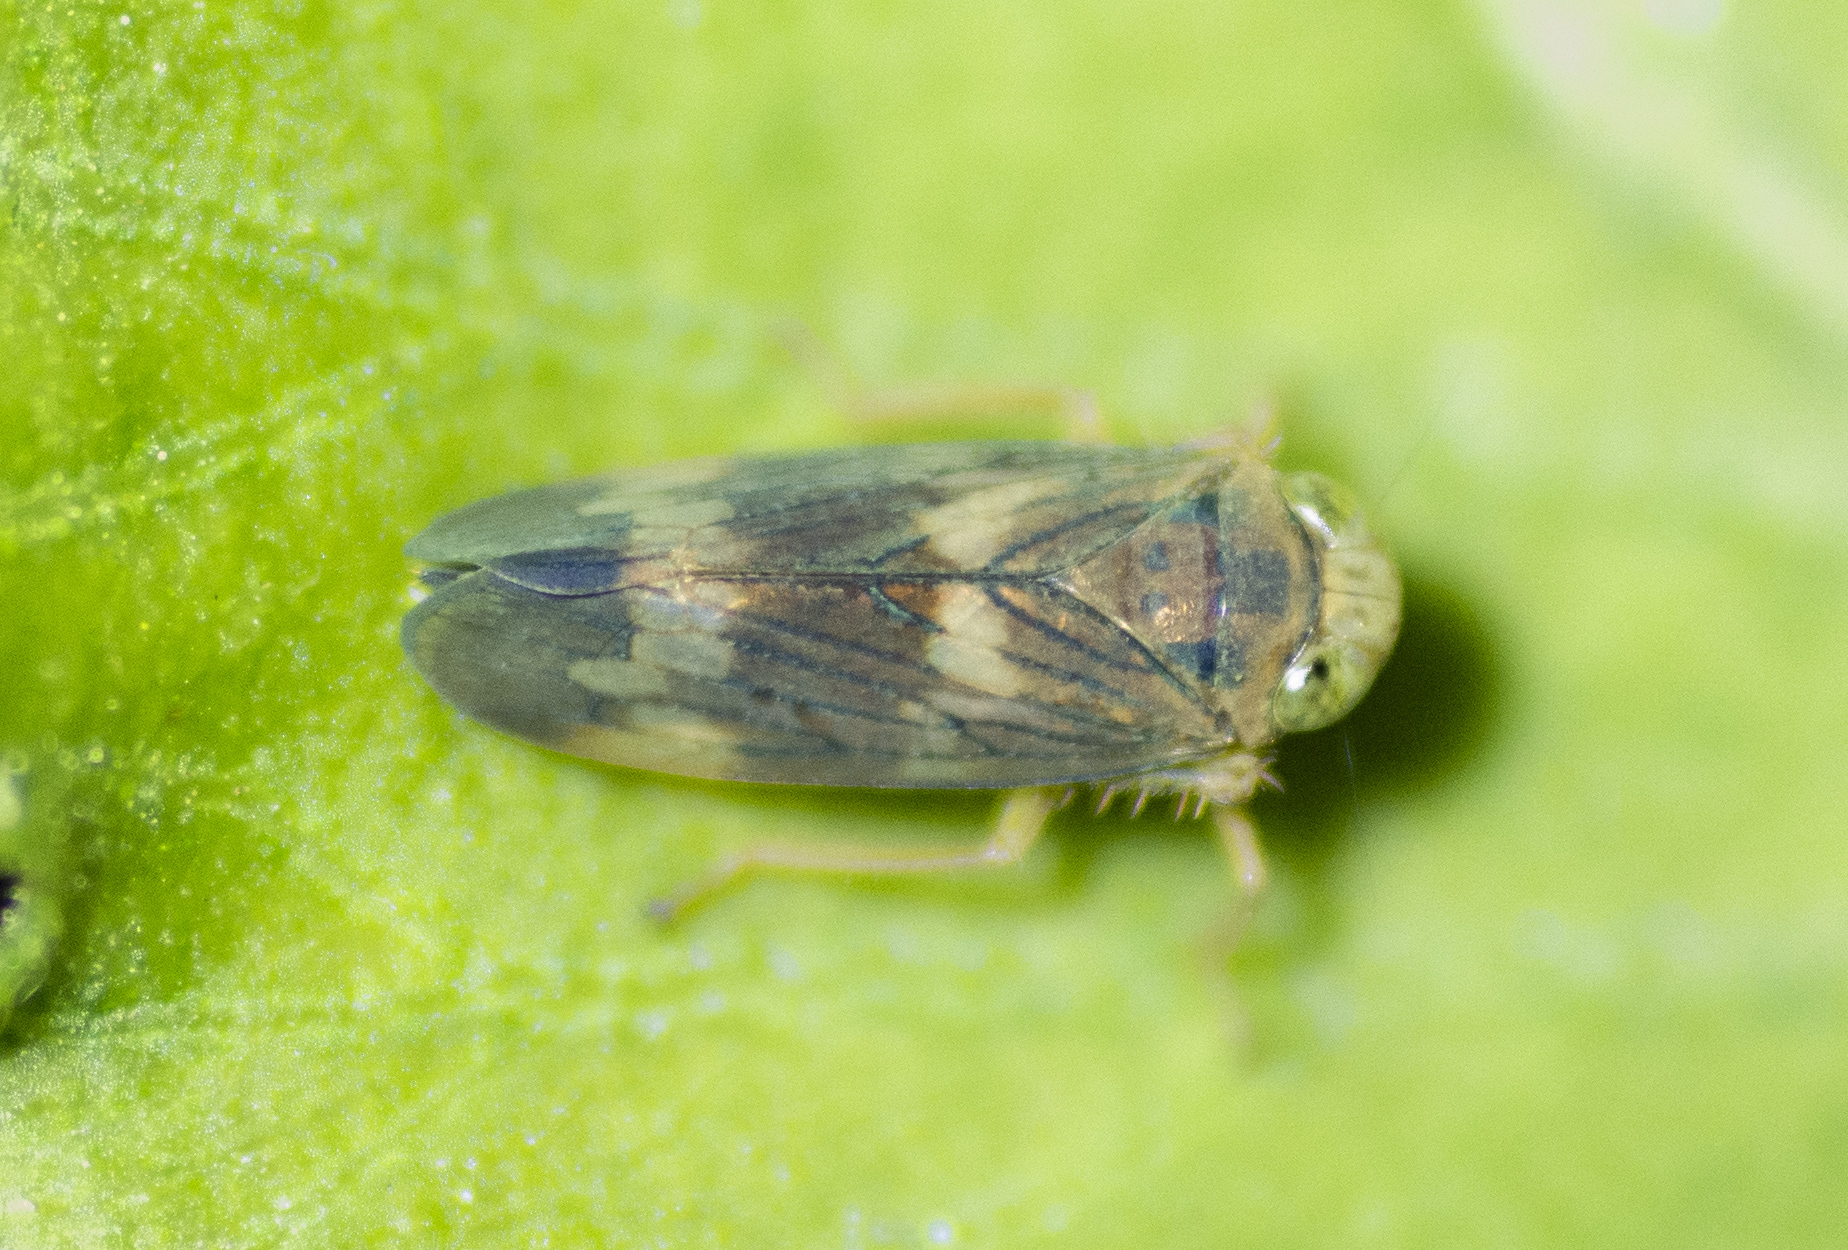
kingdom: Animalia
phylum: Arthropoda
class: Insecta
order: Hemiptera
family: Cicadellidae
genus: Jikradia
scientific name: Jikradia olitoria
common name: Coppery leafhopper
